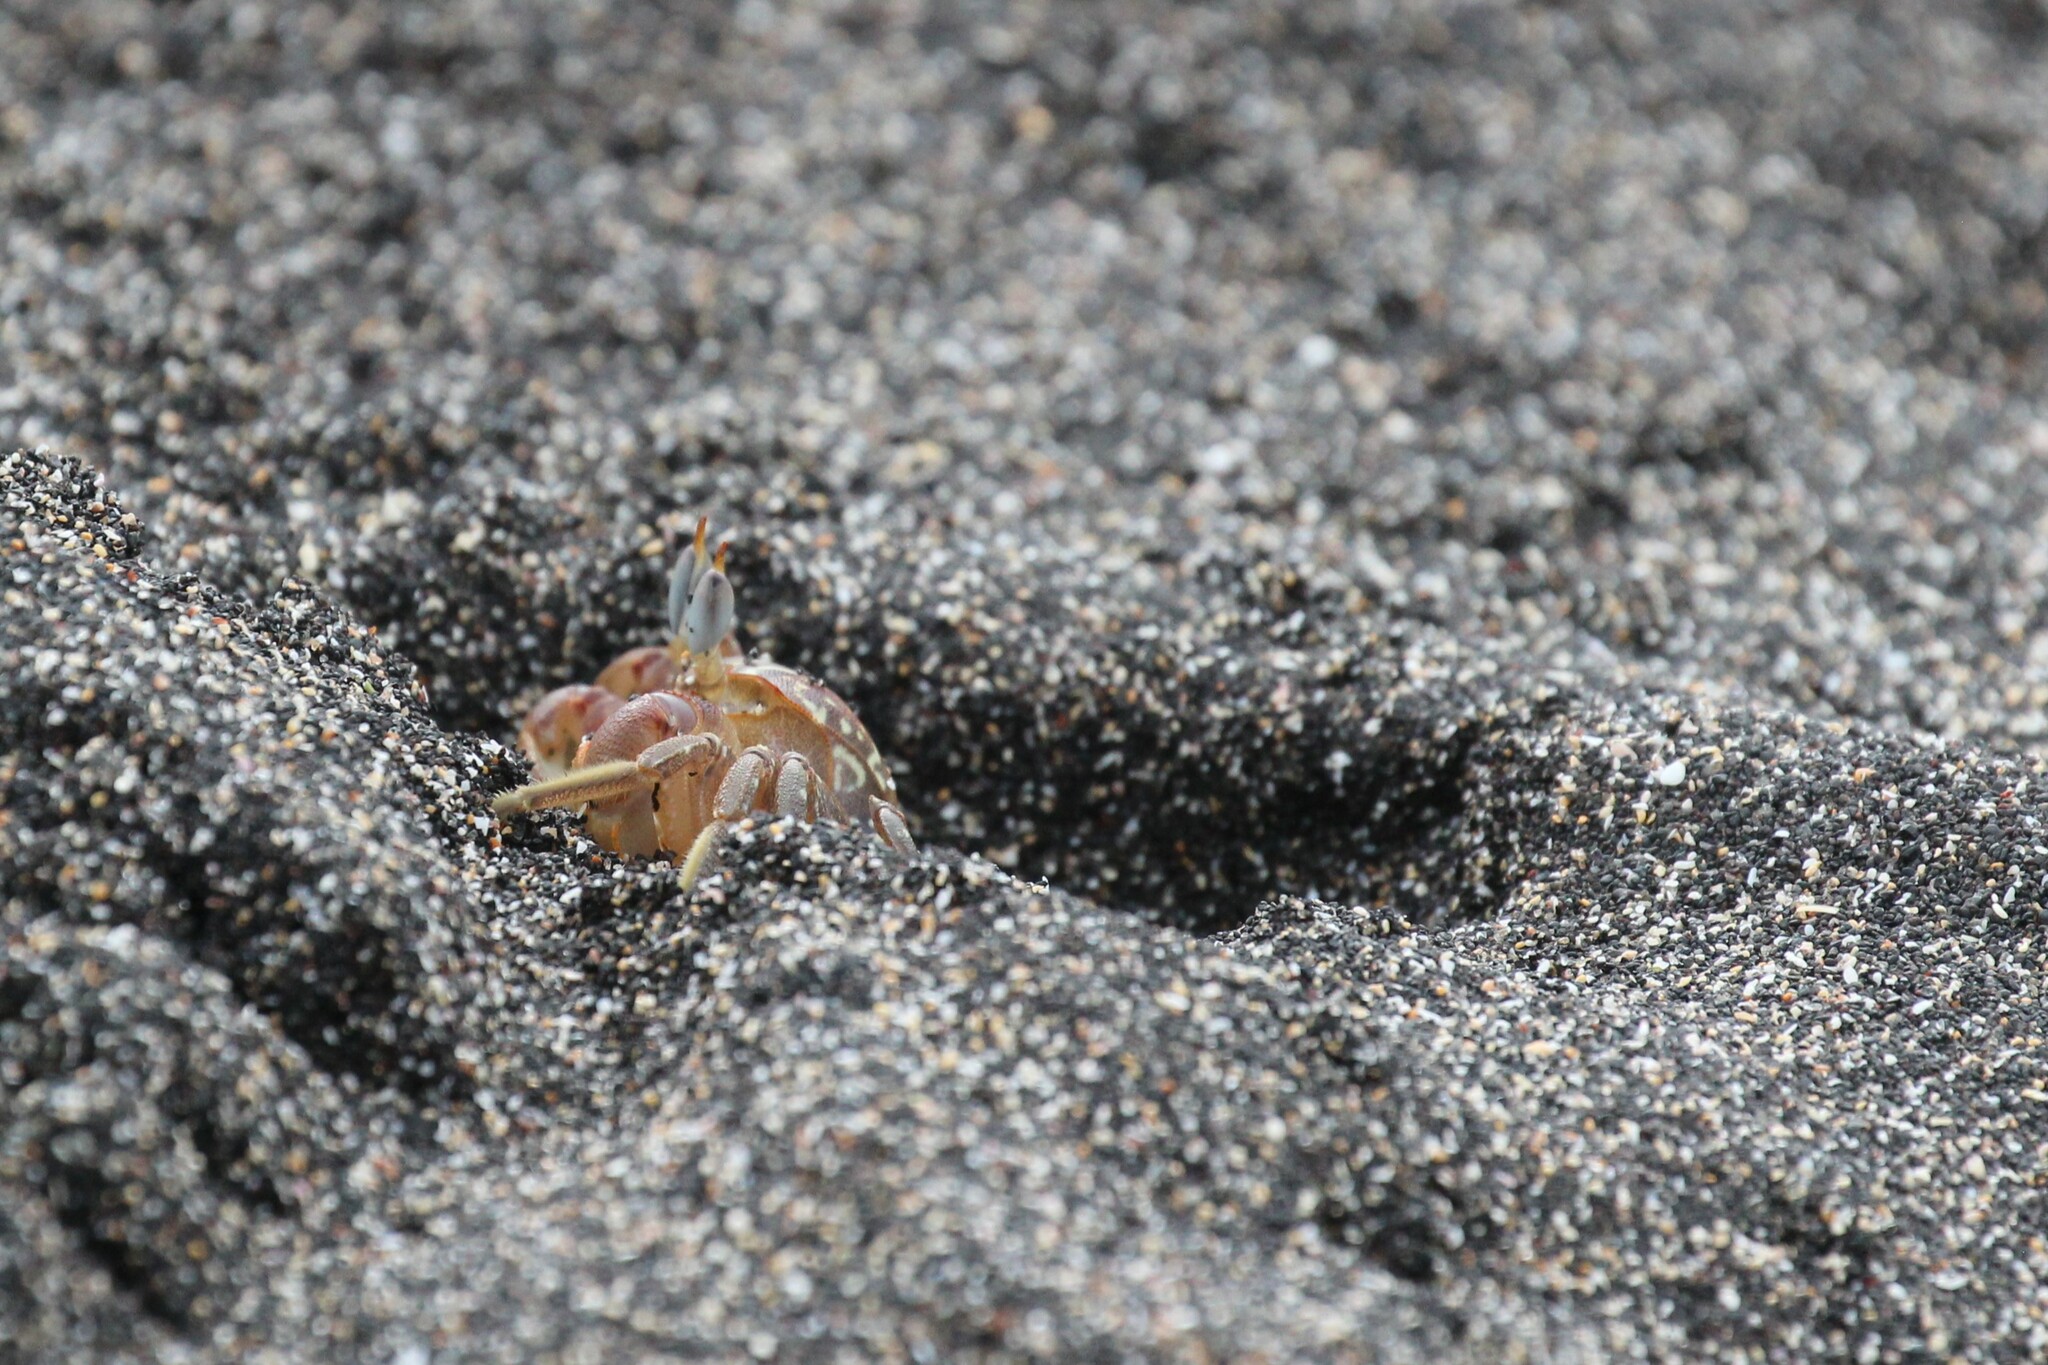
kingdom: Animalia
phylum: Arthropoda
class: Malacostraca
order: Decapoda
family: Ocypodidae
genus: Ocypode
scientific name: Ocypode gaudichaudii
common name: Pacific ghost crab
